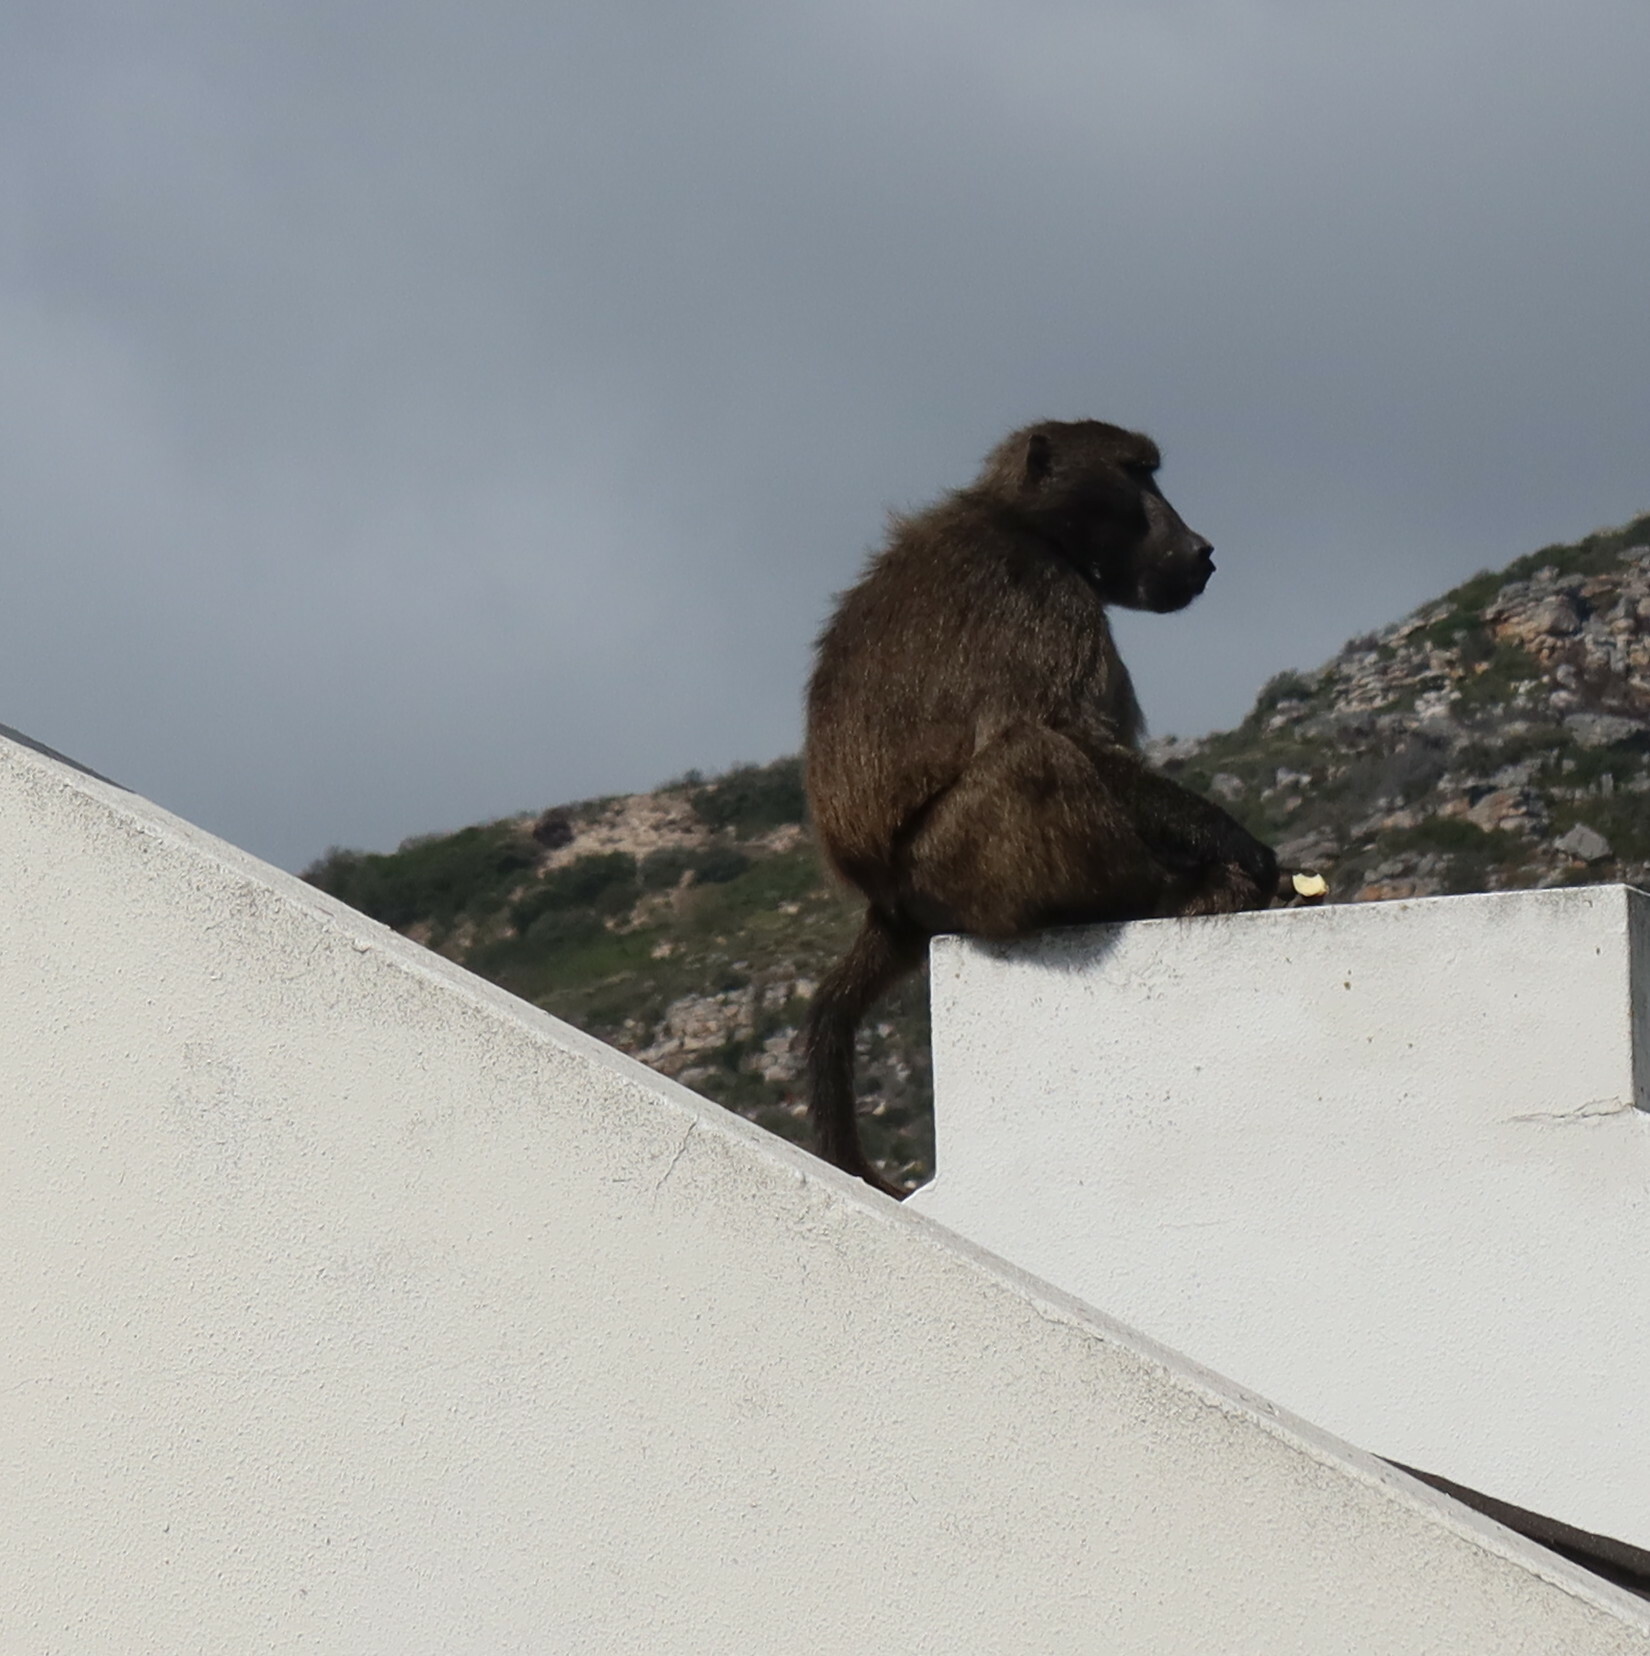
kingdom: Animalia
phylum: Chordata
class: Mammalia
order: Primates
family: Cercopithecidae
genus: Papio
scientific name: Papio ursinus
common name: Chacma baboon
